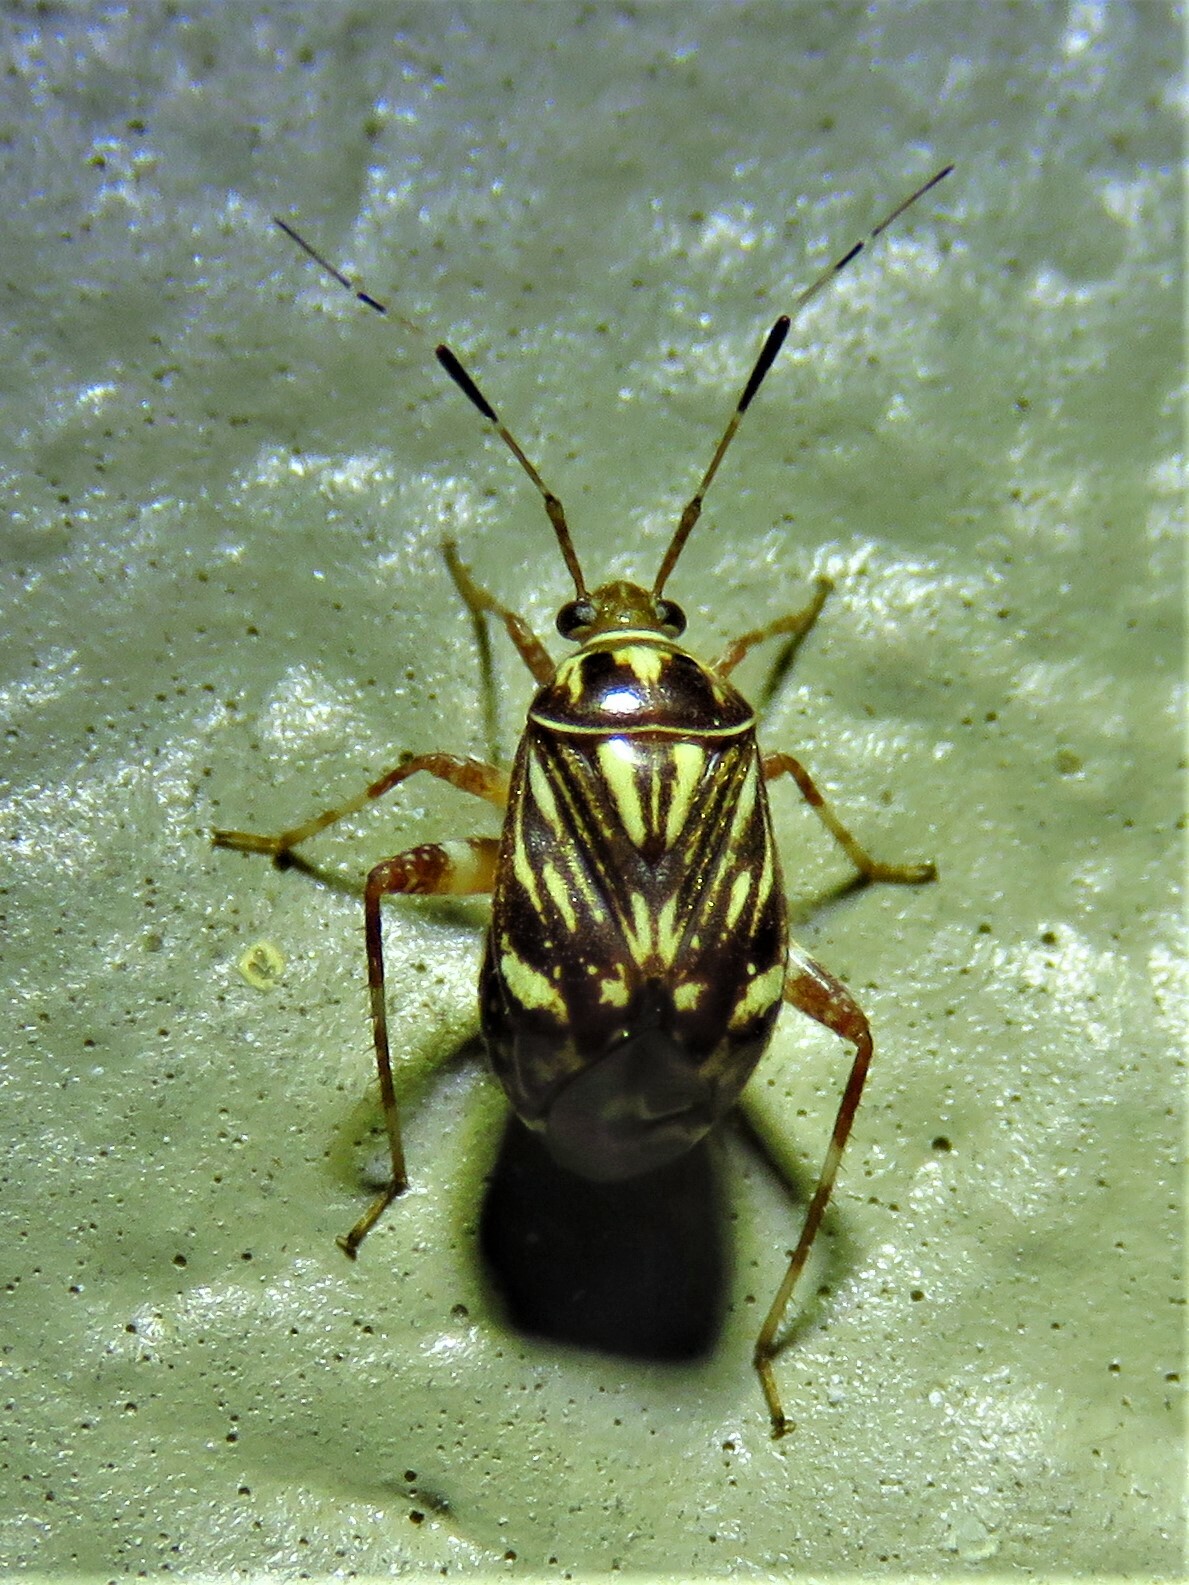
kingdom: Animalia
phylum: Arthropoda
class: Insecta
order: Hemiptera
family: Miridae
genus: Taedia
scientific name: Taedia virgulata
